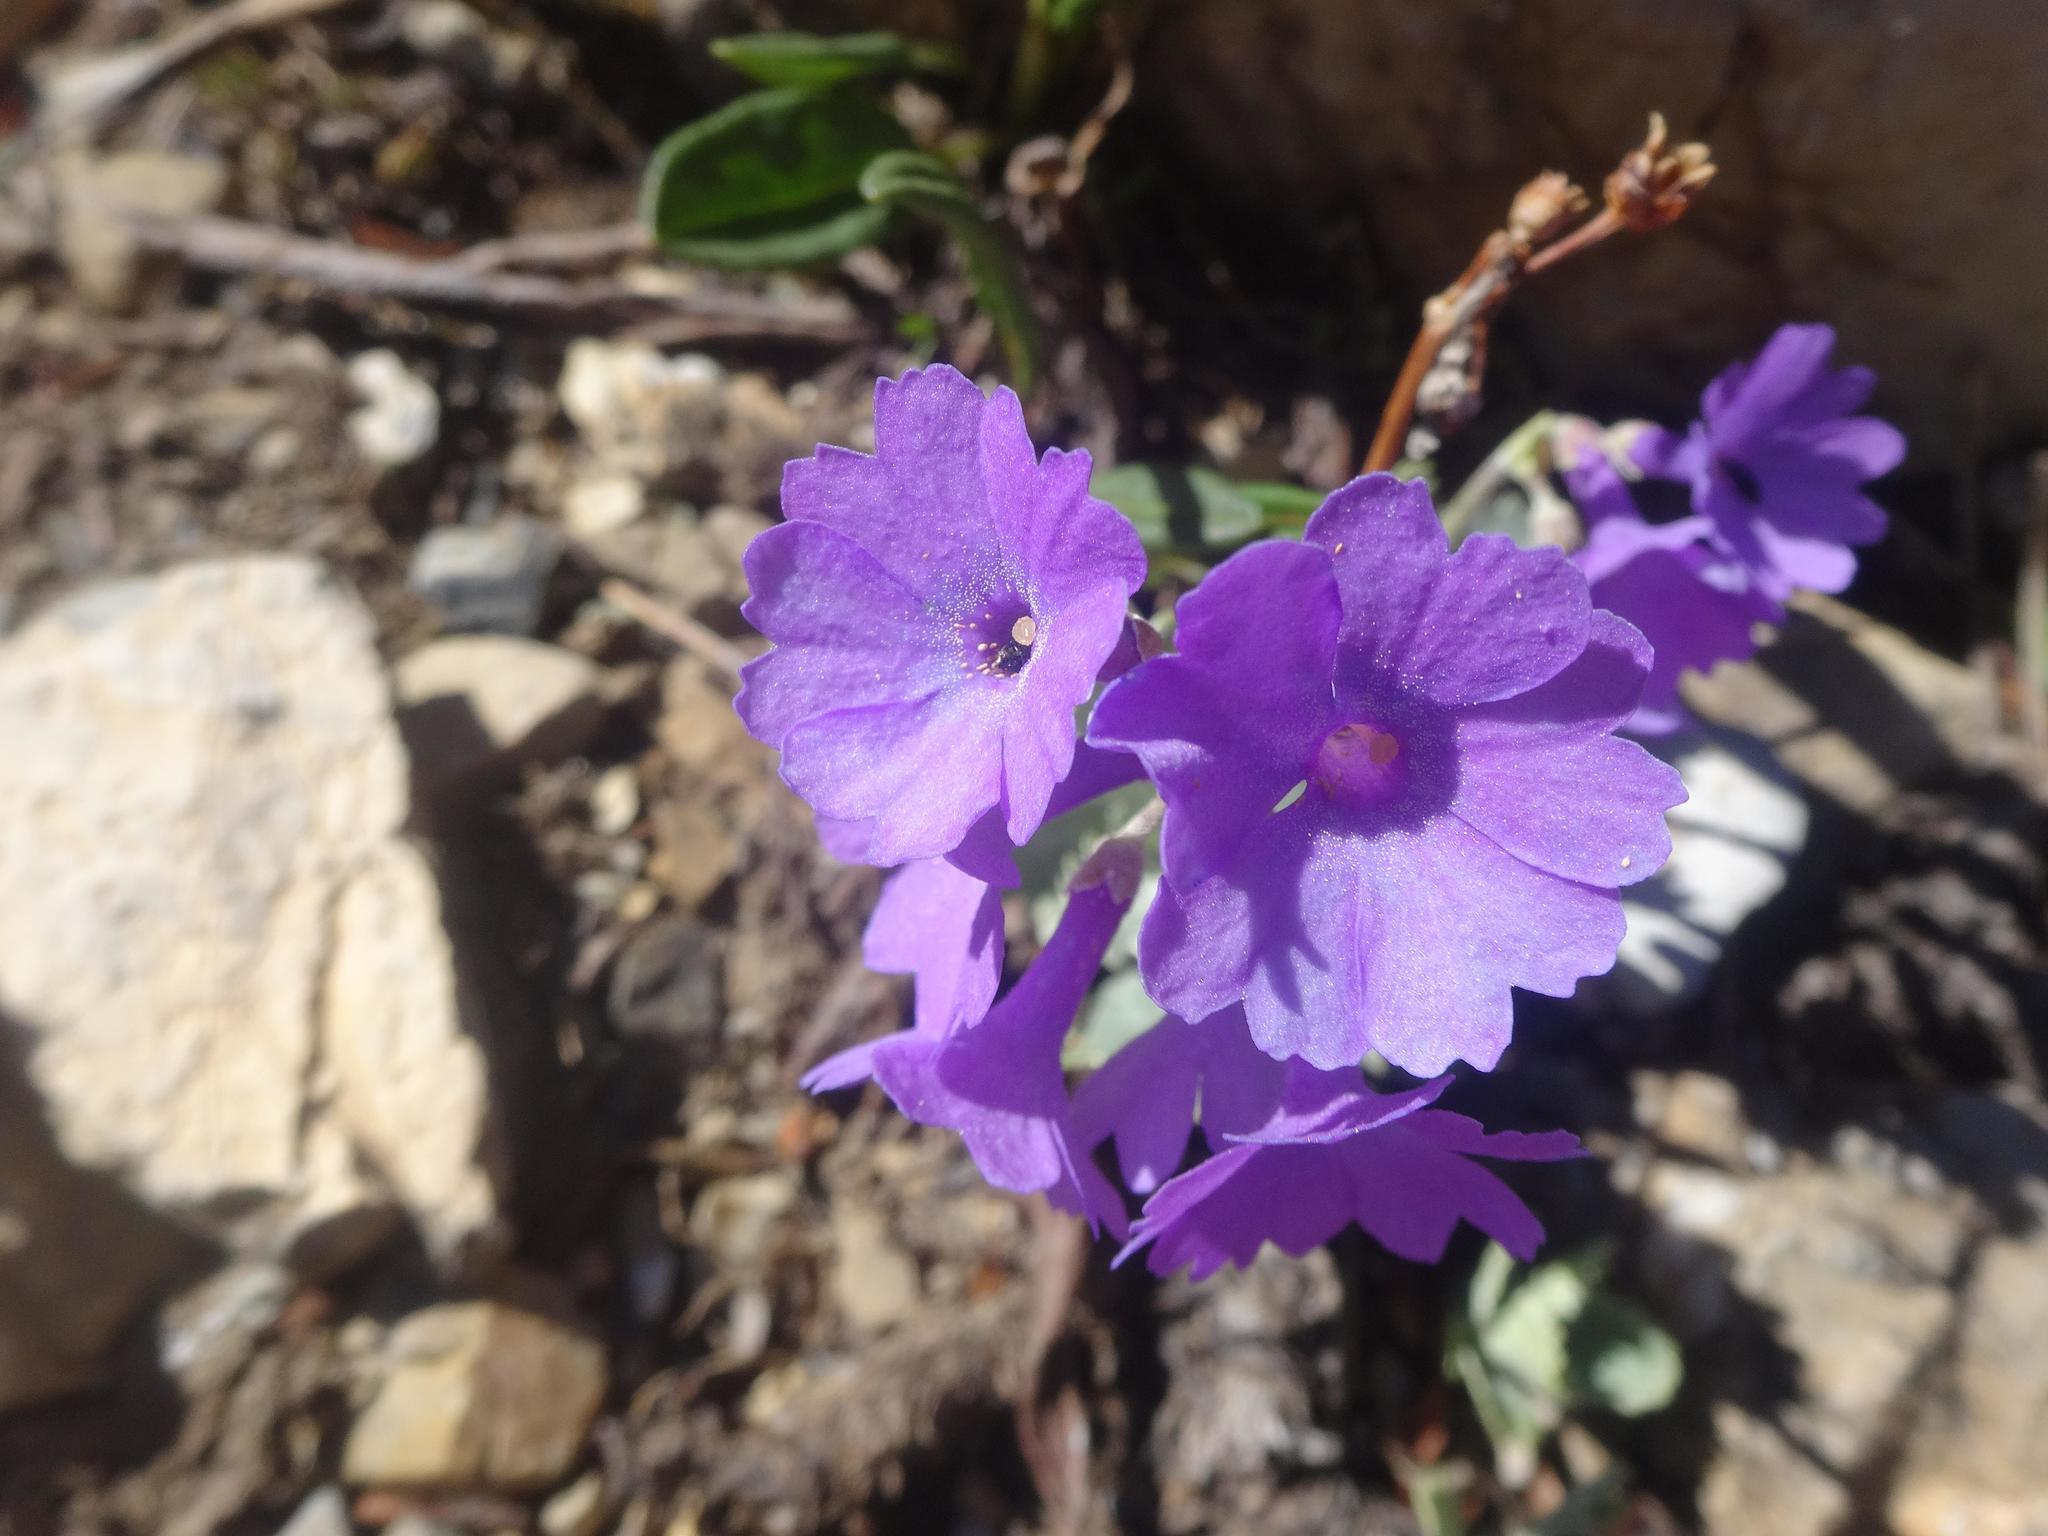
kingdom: Plantae
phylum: Tracheophyta
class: Magnoliopsida
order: Ericales
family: Primulaceae
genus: Primula
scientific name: Primula marginata
